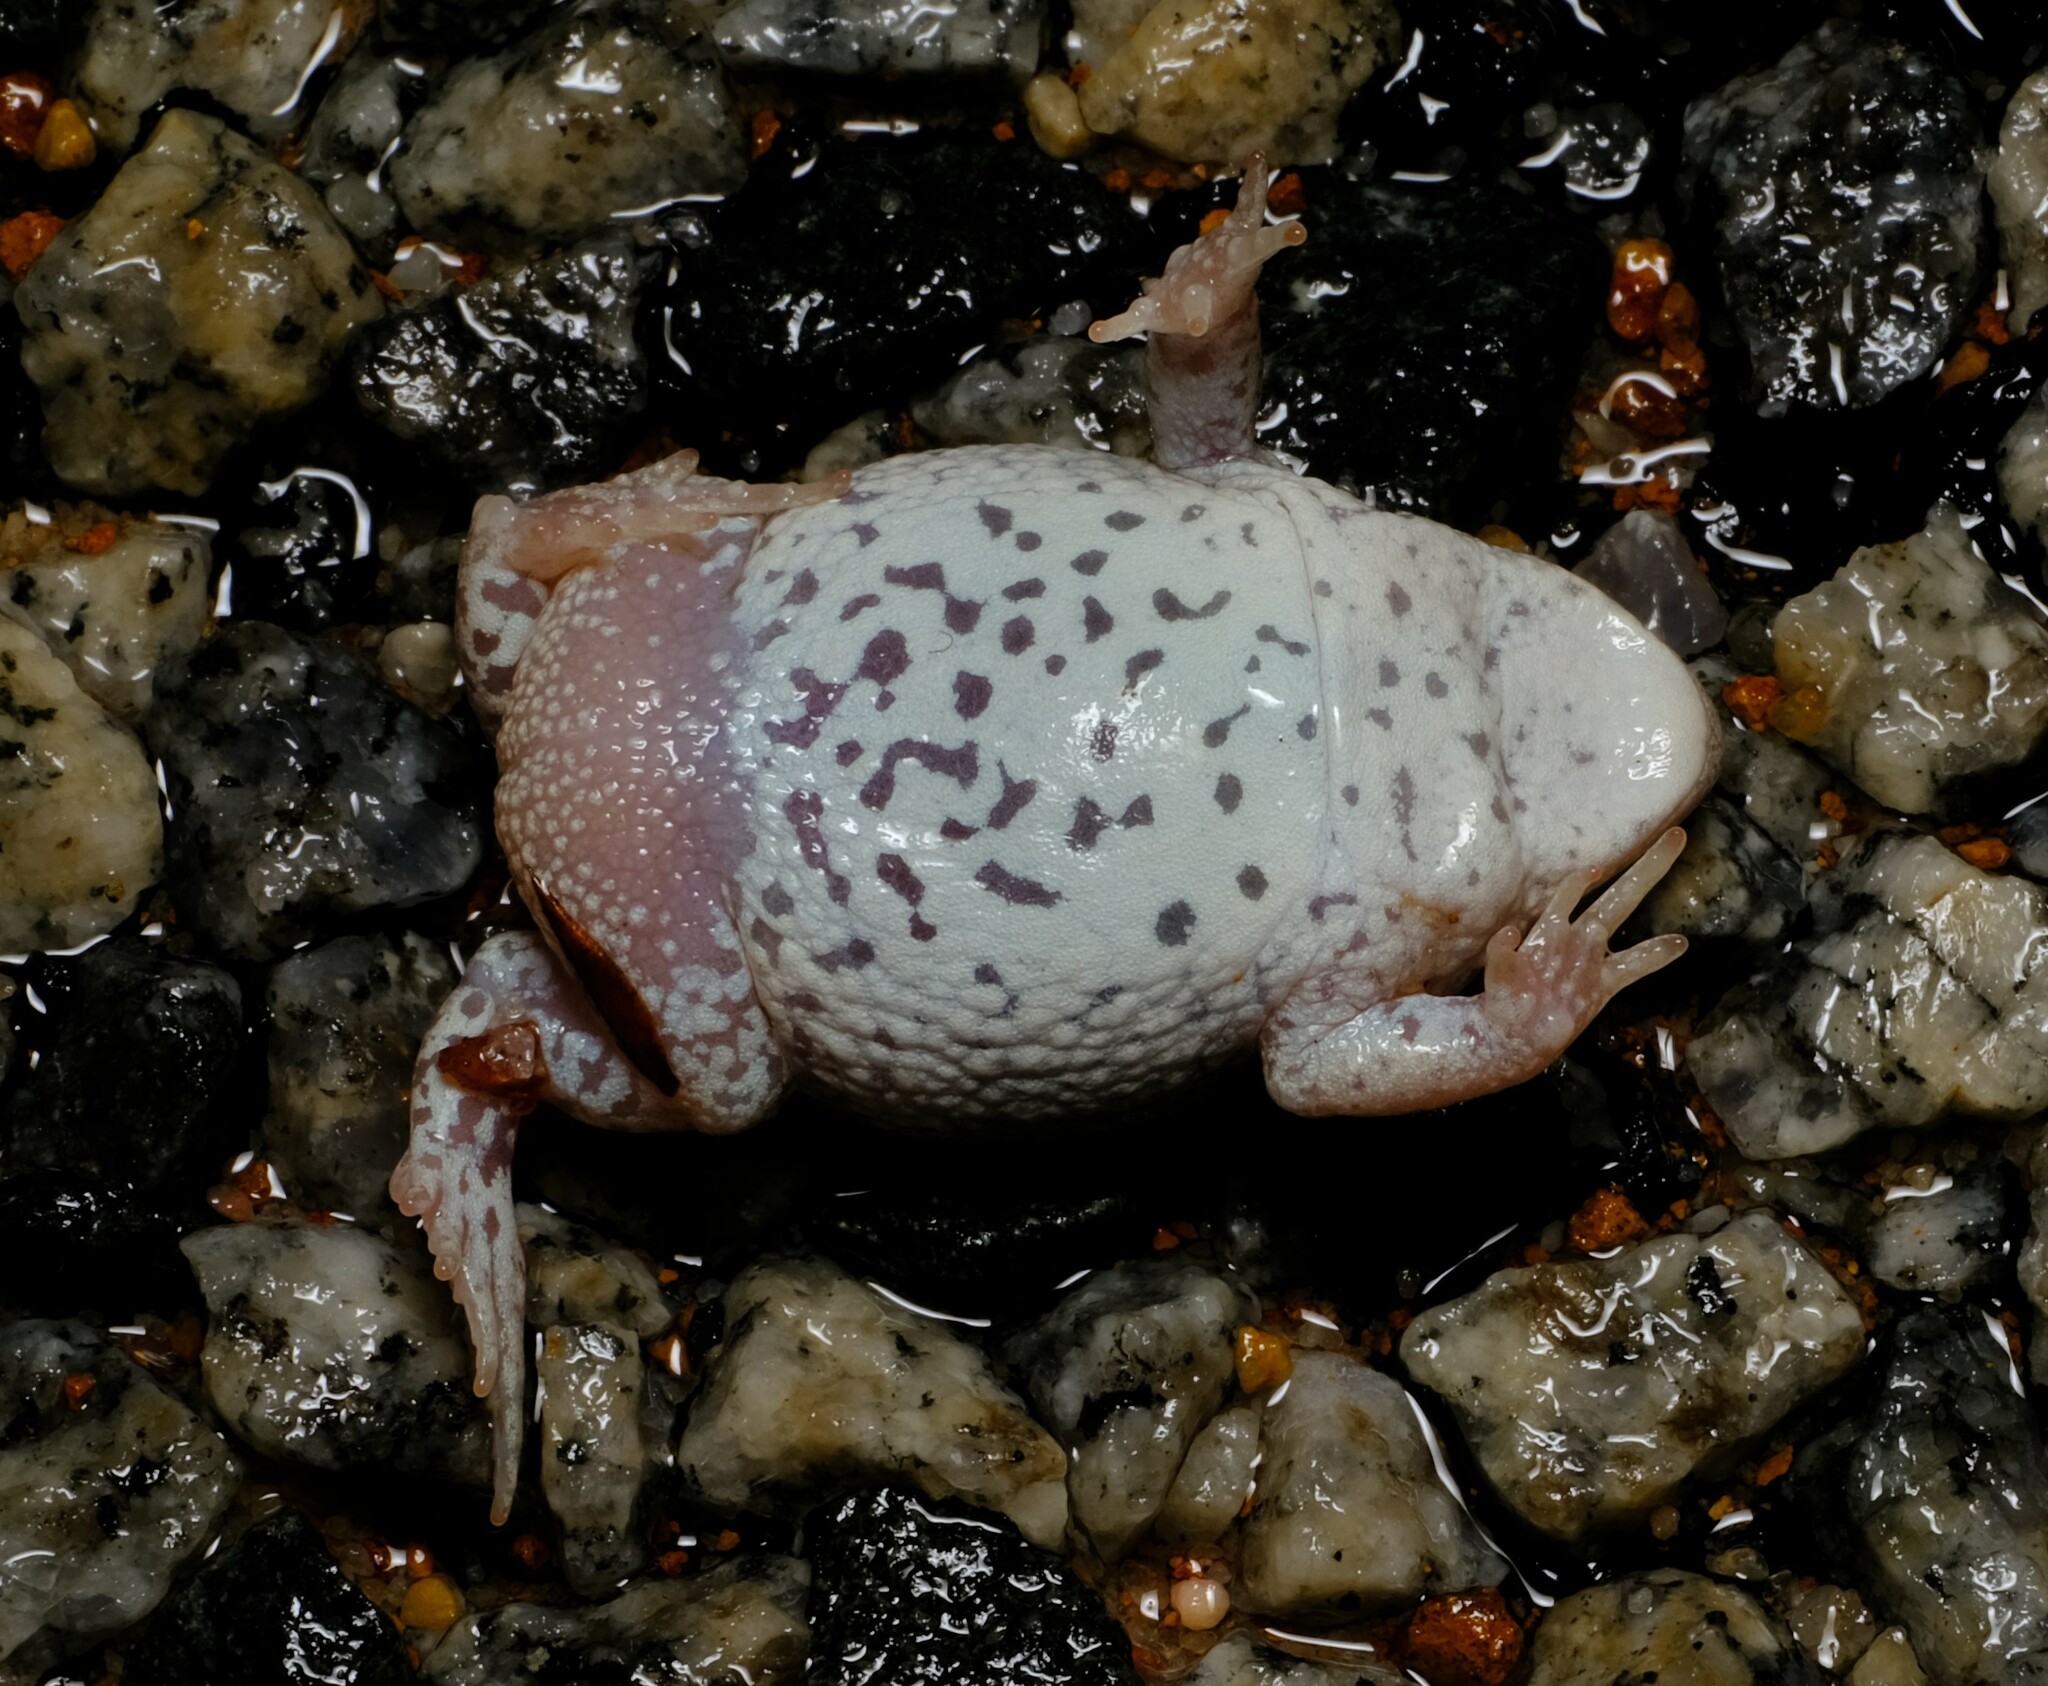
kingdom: Animalia
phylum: Chordata
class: Amphibia
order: Anura
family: Myobatrachidae
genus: Pseudophryne
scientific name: Pseudophryne guentheri
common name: Günther’s toadlet
